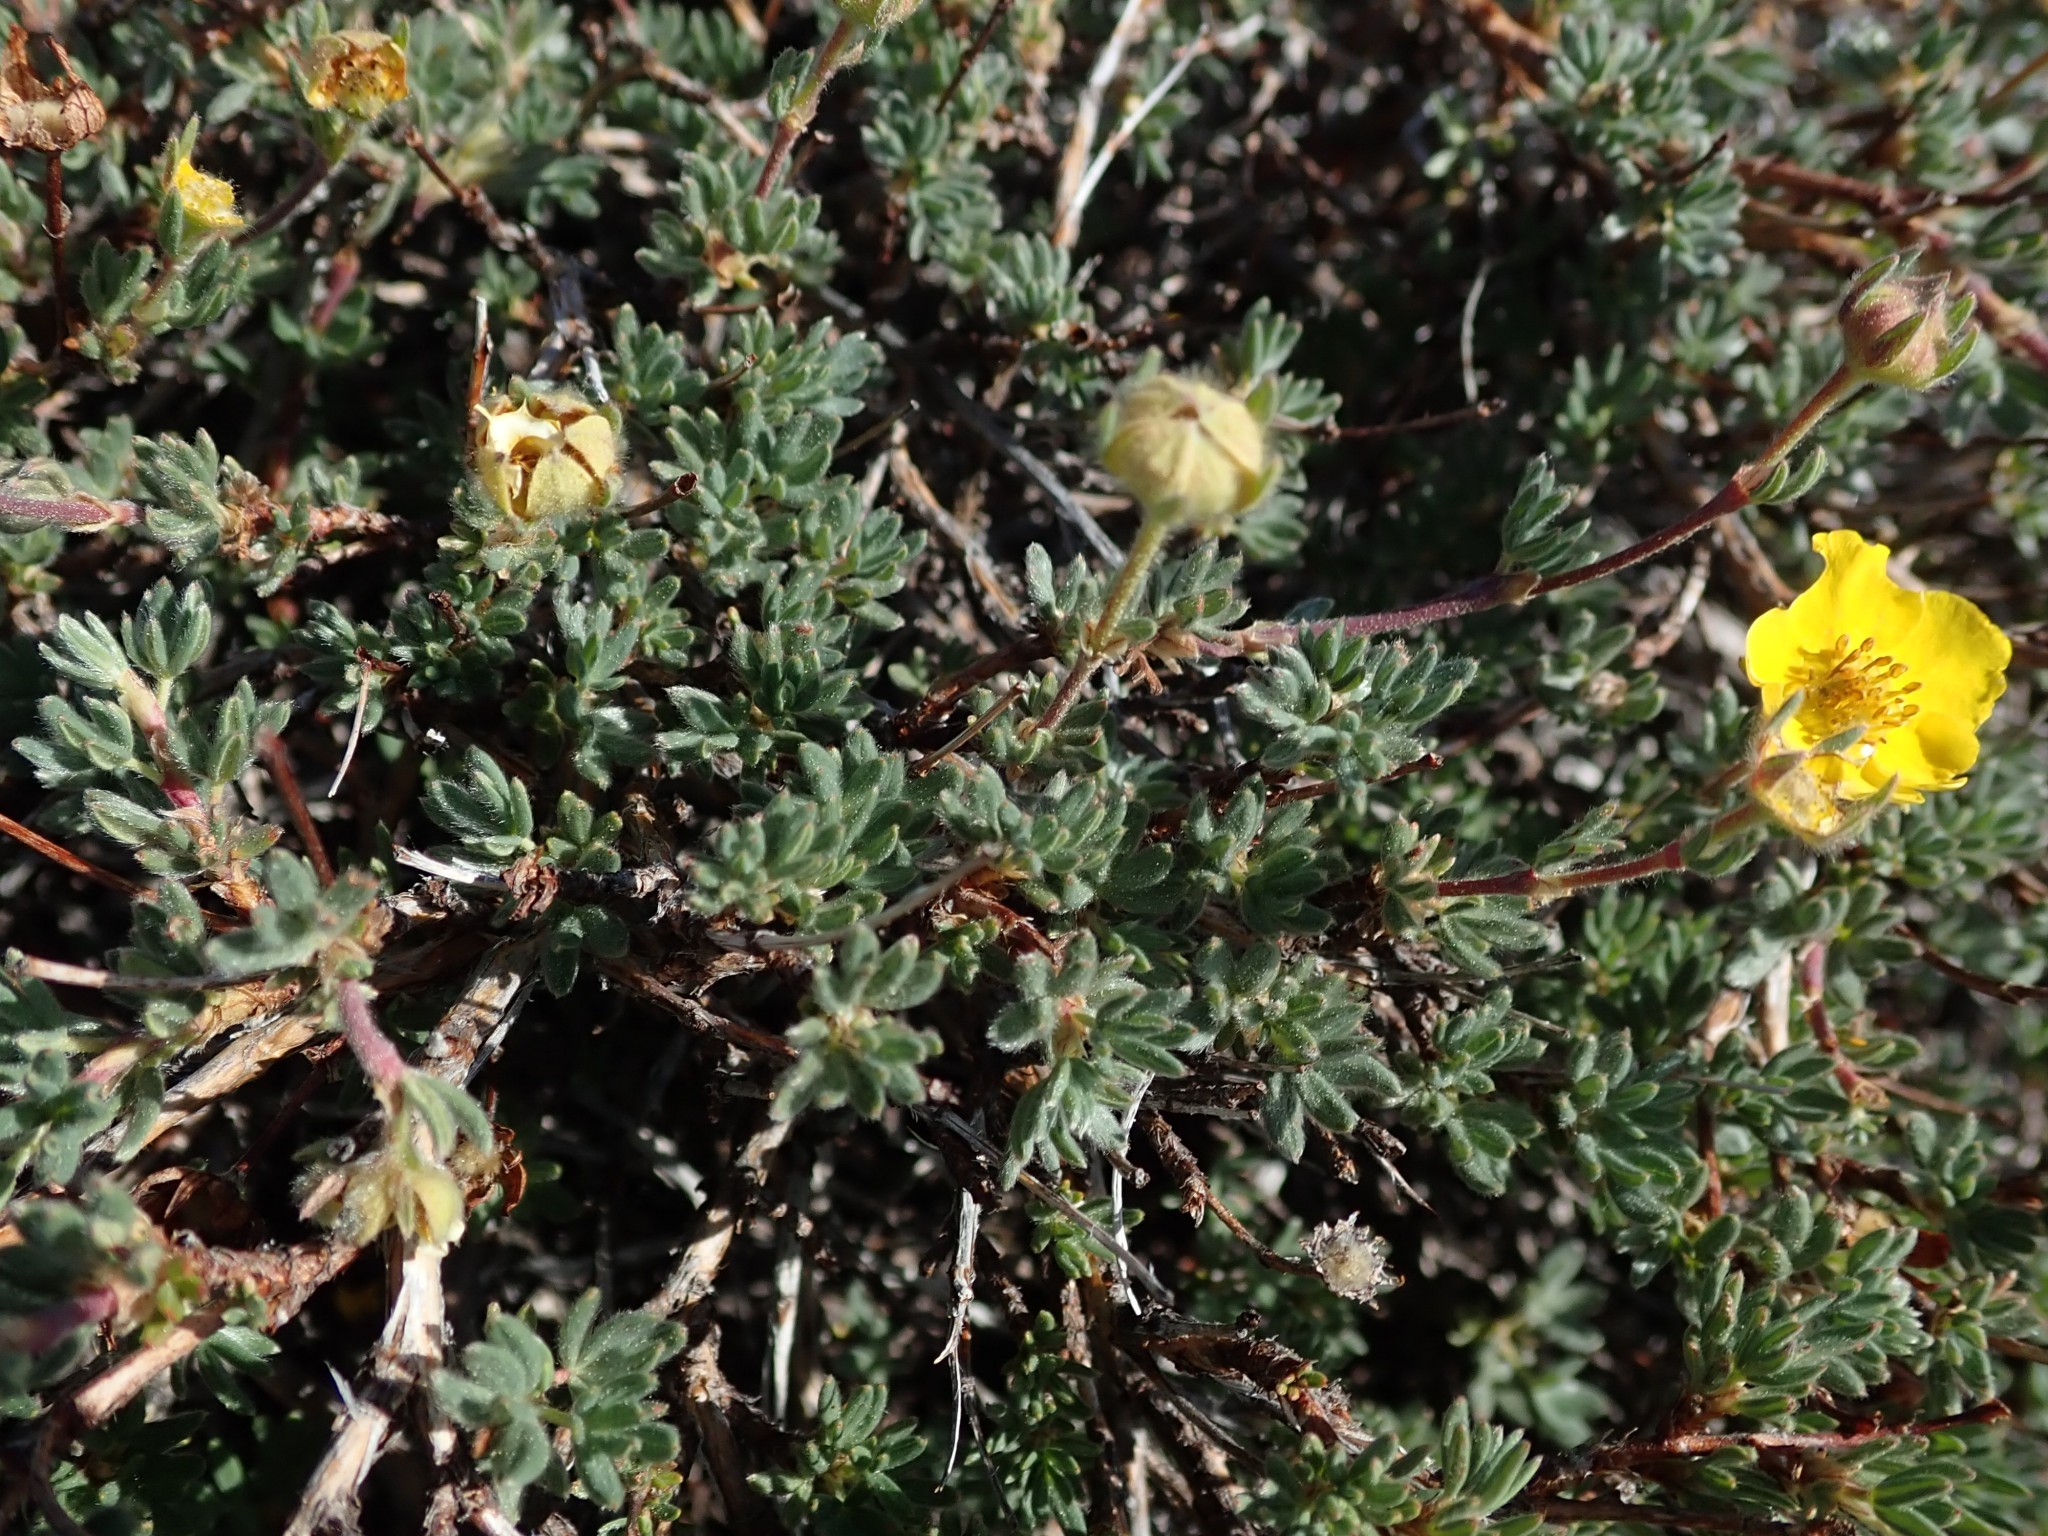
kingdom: Plantae
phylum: Tracheophyta
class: Magnoliopsida
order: Rosales
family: Rosaceae
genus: Dasiphora
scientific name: Dasiphora fruticosa
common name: Shrubby cinquefoil
